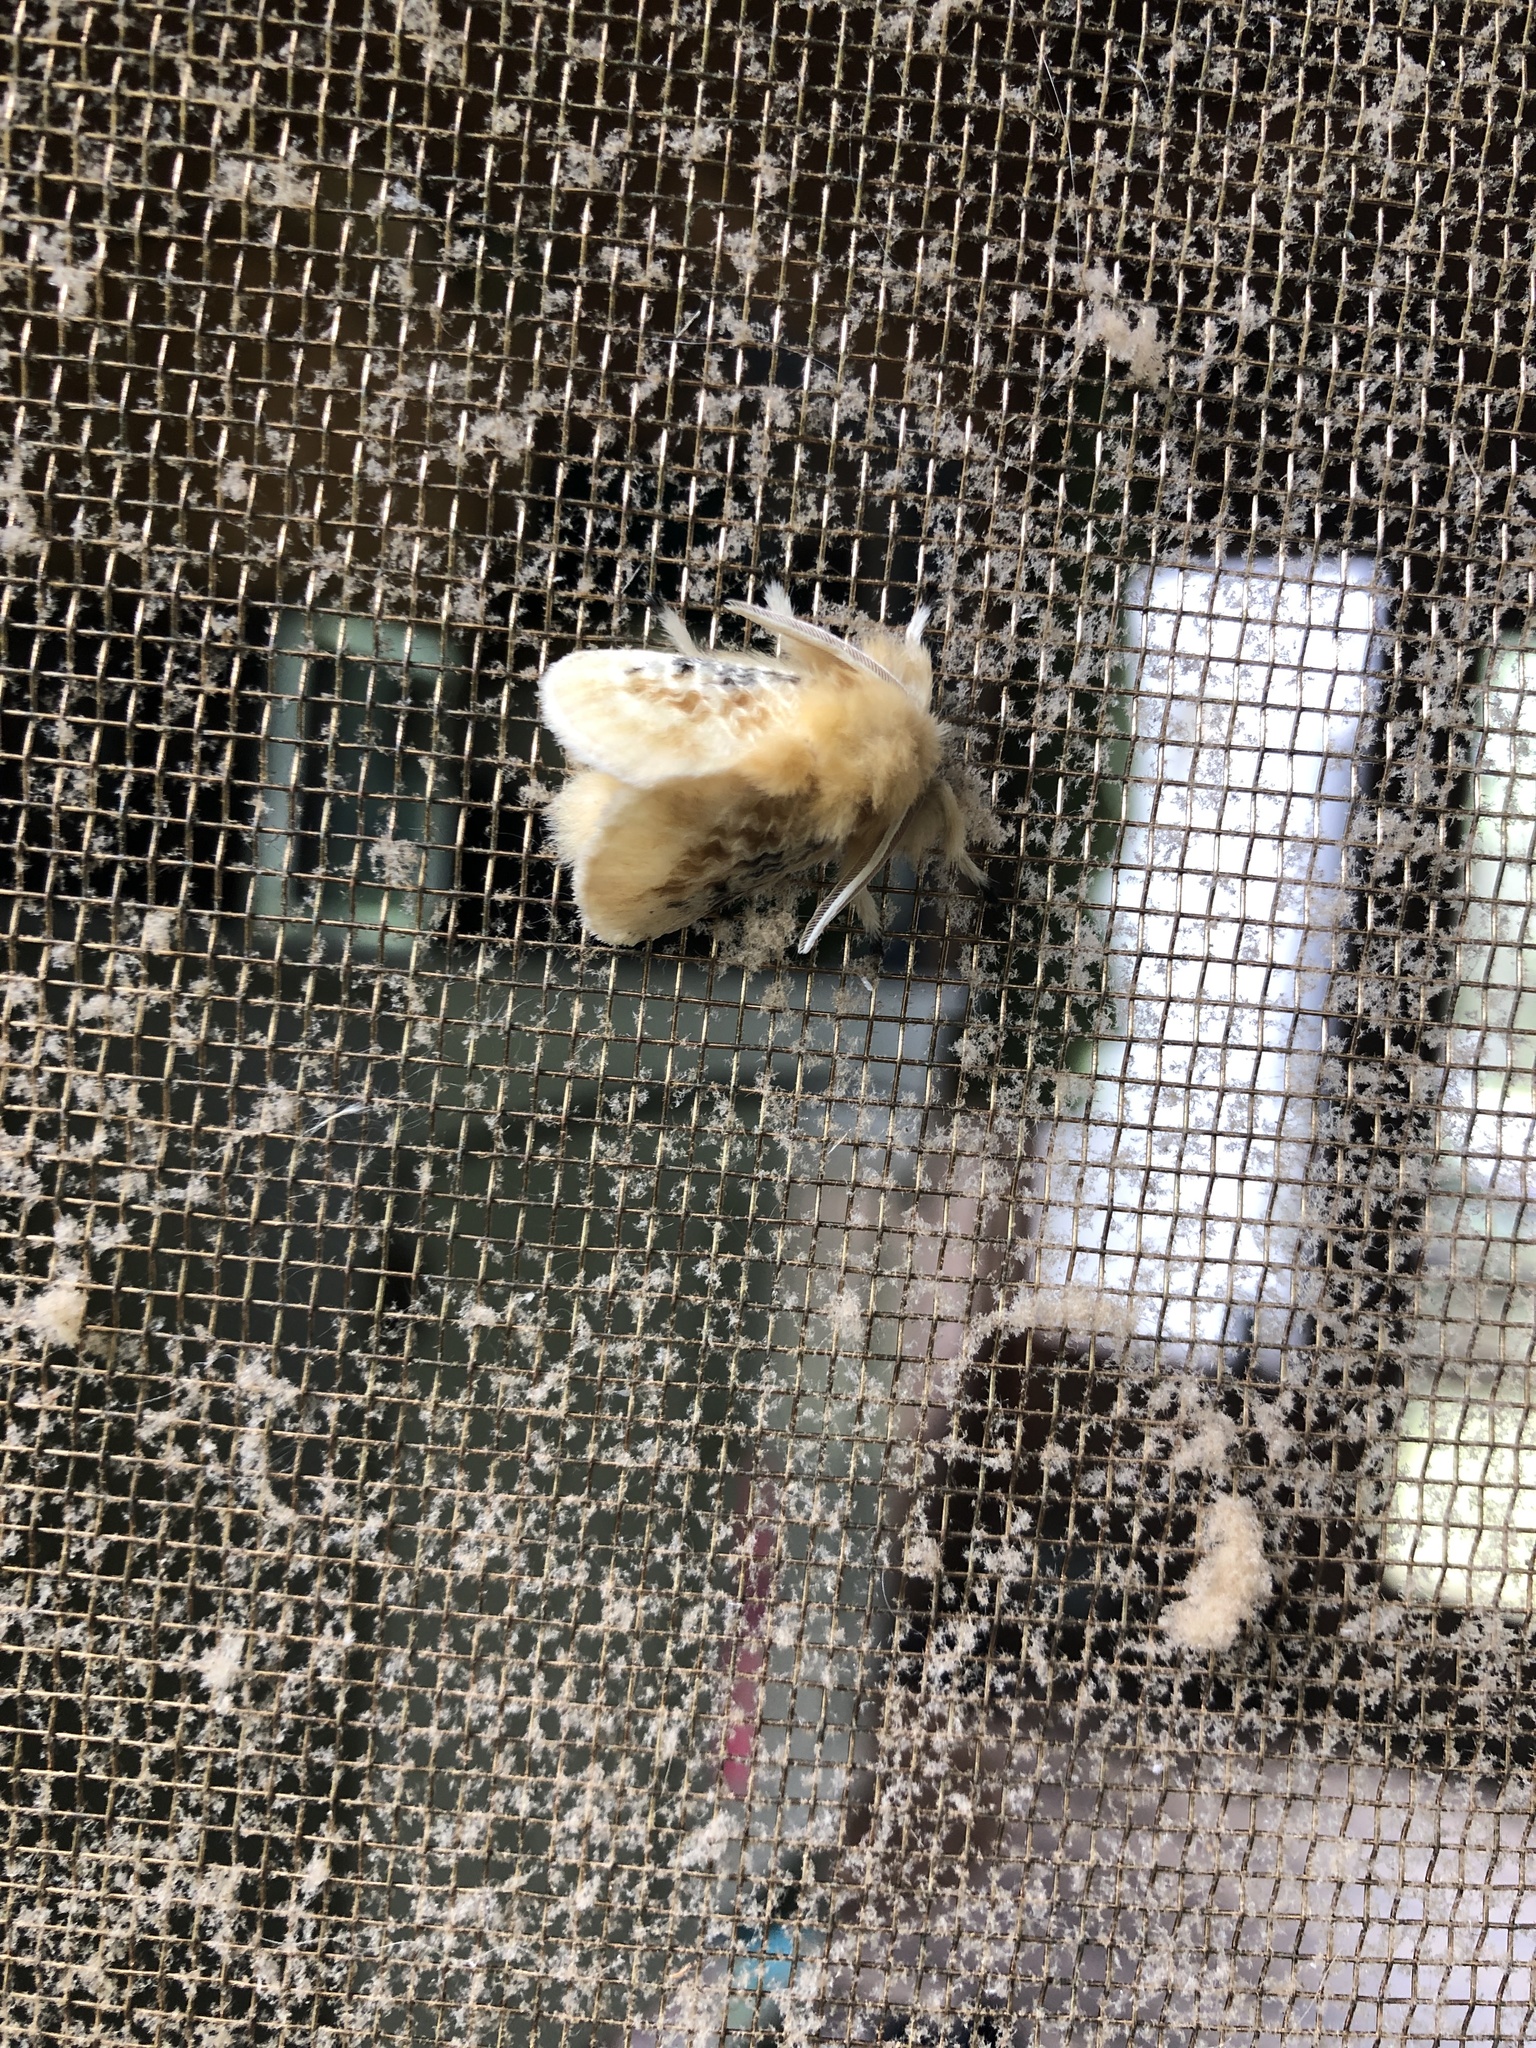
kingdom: Animalia
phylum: Arthropoda
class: Insecta
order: Lepidoptera
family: Megalopygidae
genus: Megalopyge
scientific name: Megalopyge crispata
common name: Black-waved flannel moth
